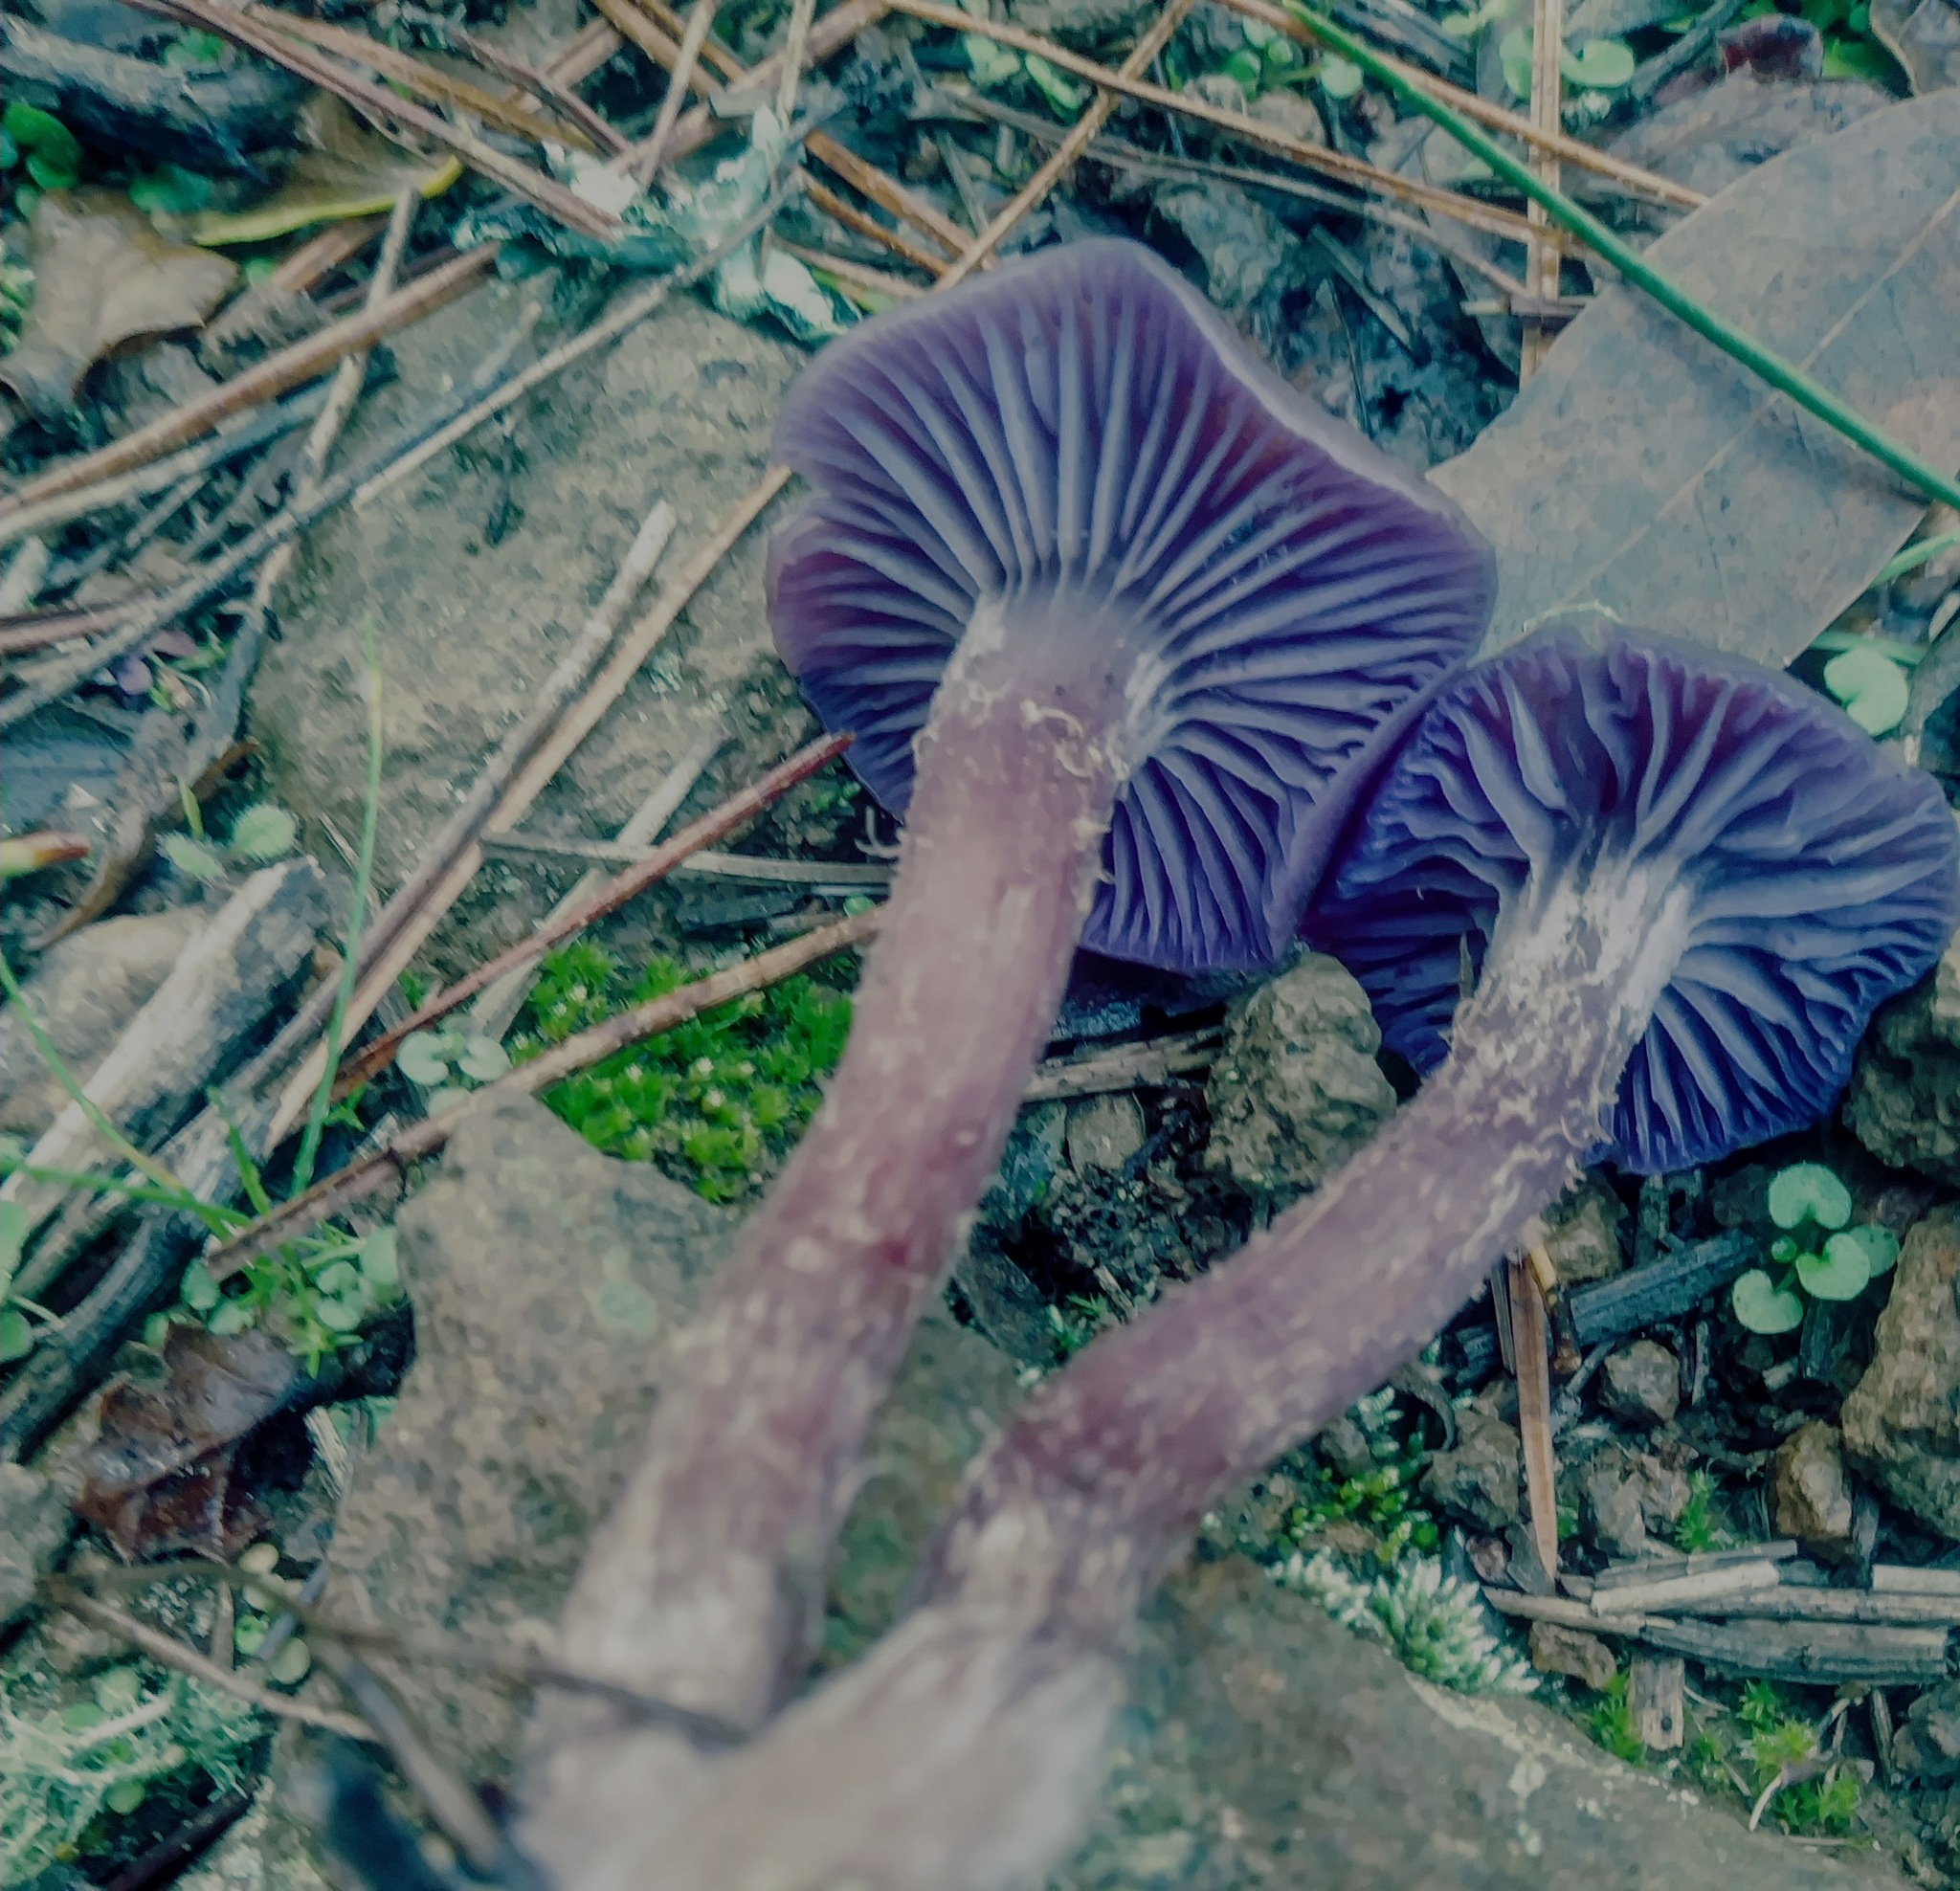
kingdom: Fungi
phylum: Basidiomycota
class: Agaricomycetes
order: Agaricales
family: Hydnangiaceae
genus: Laccaria
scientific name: Laccaria amethysteo-occidentalis
